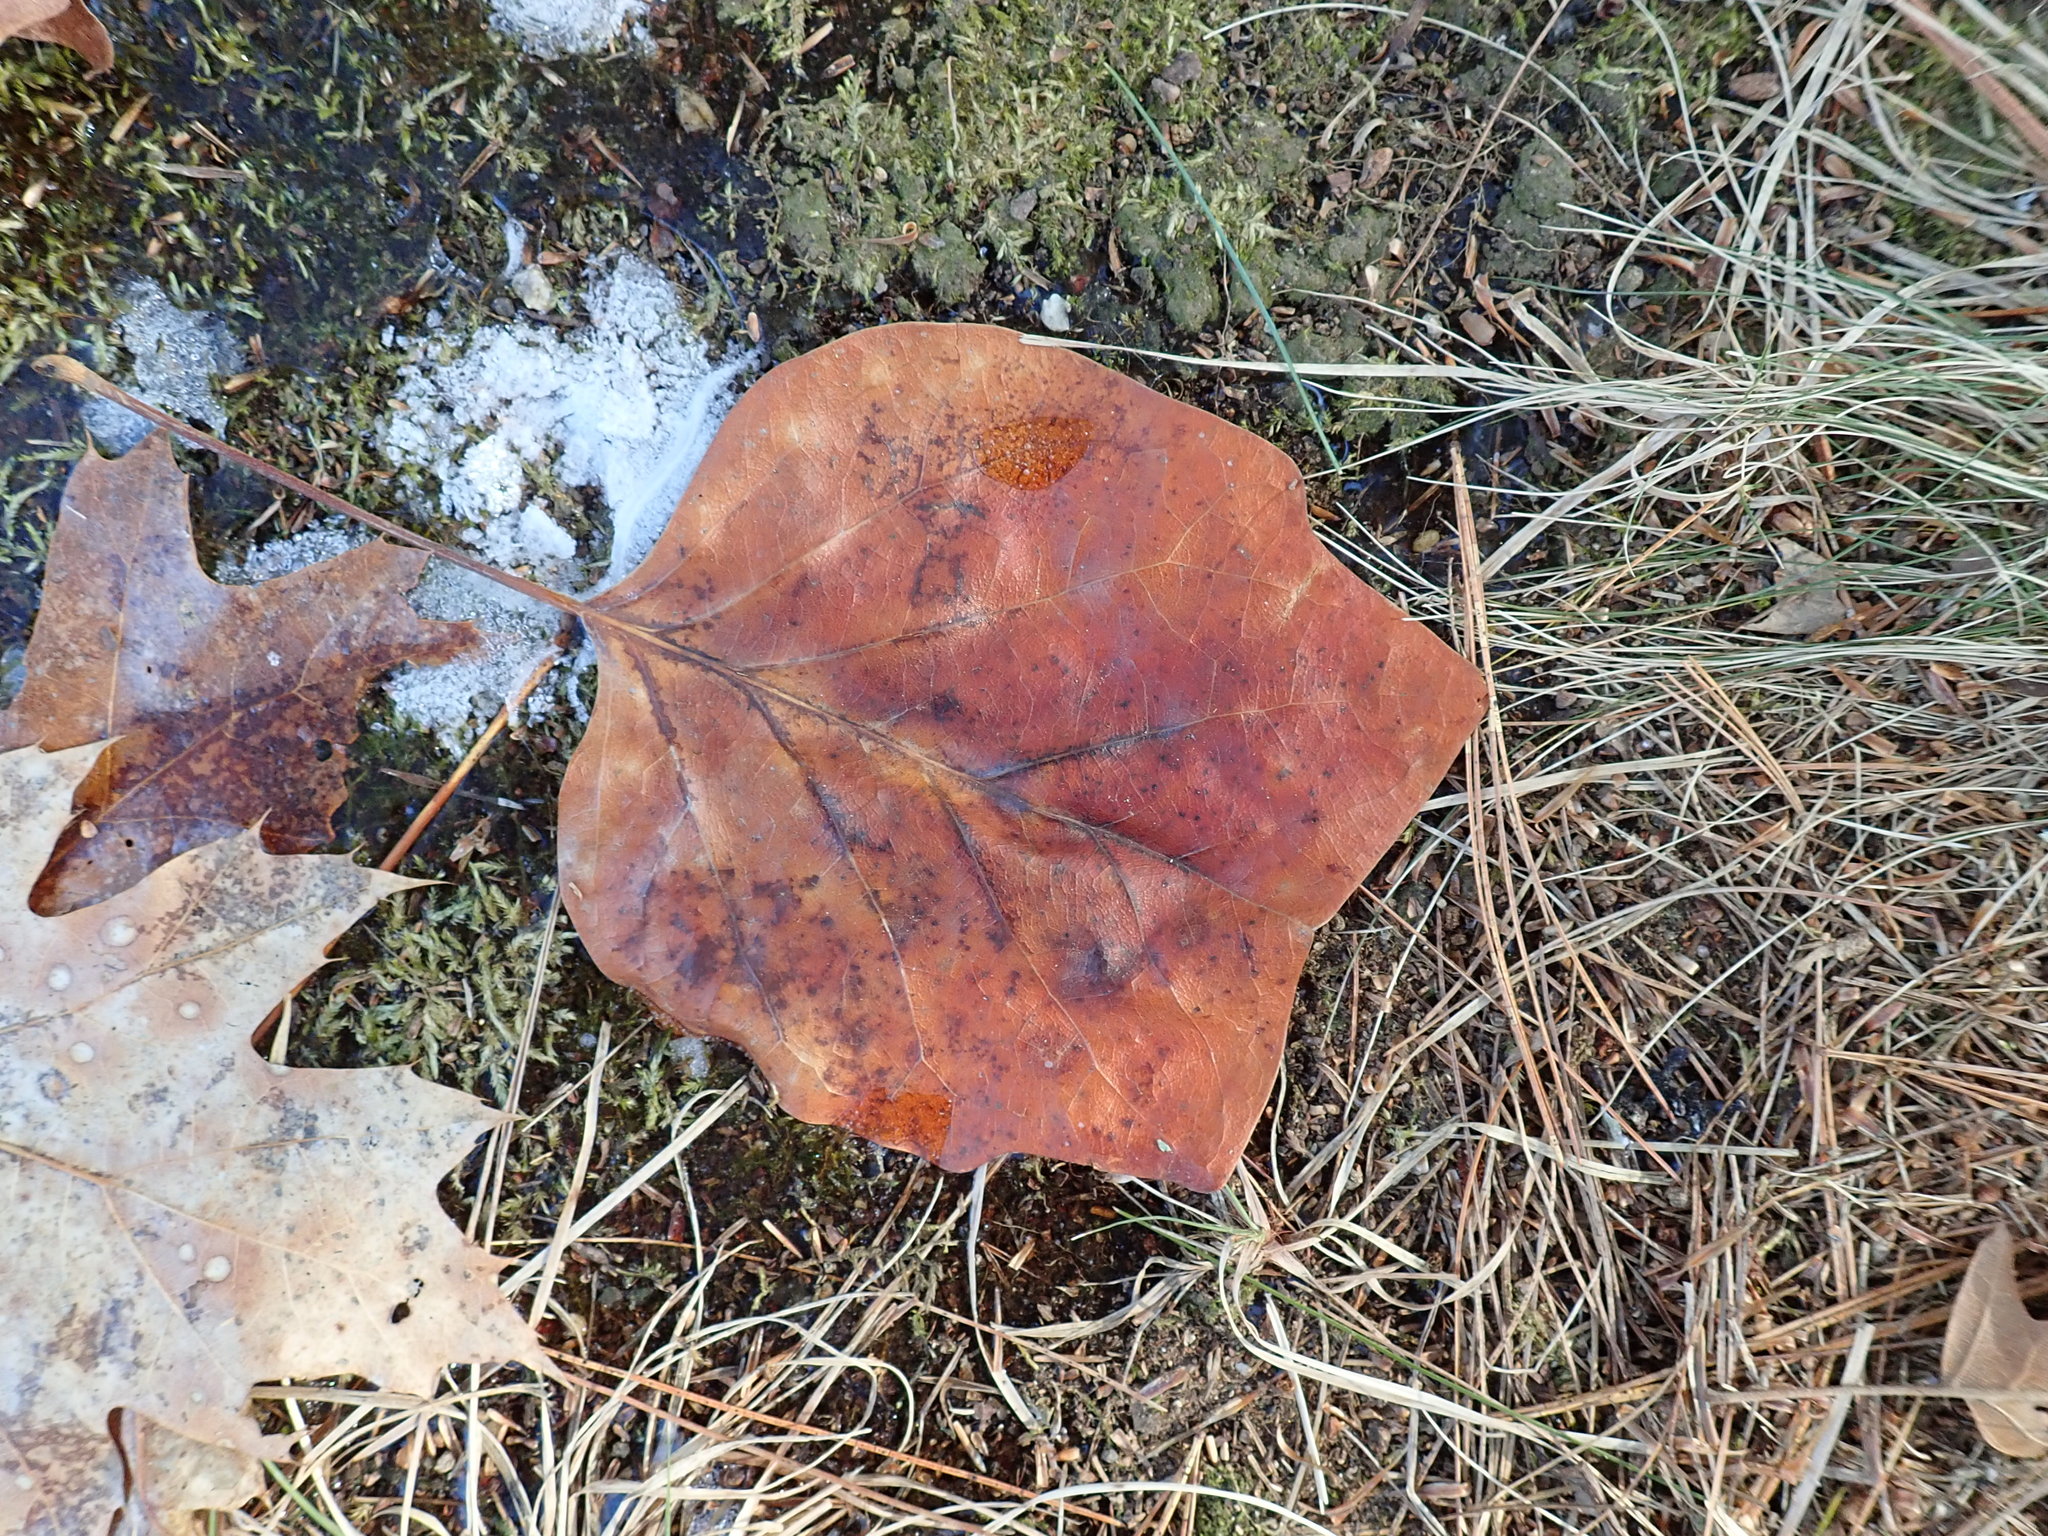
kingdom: Plantae
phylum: Tracheophyta
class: Magnoliopsida
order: Magnoliales
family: Magnoliaceae
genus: Liriodendron
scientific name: Liriodendron tulipifera
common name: Tulip tree
